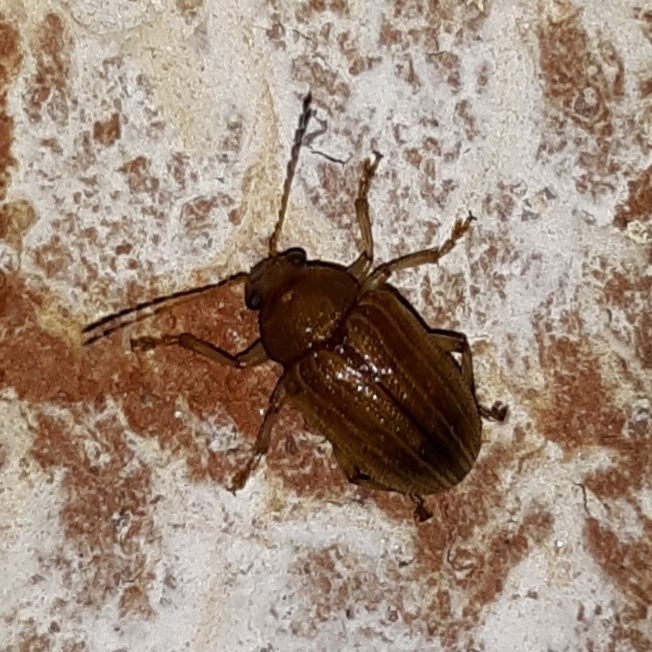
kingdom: Animalia
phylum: Arthropoda
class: Insecta
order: Coleoptera
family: Chrysomelidae
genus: Colaspis
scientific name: Colaspis brunnea
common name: Grape colaspis
